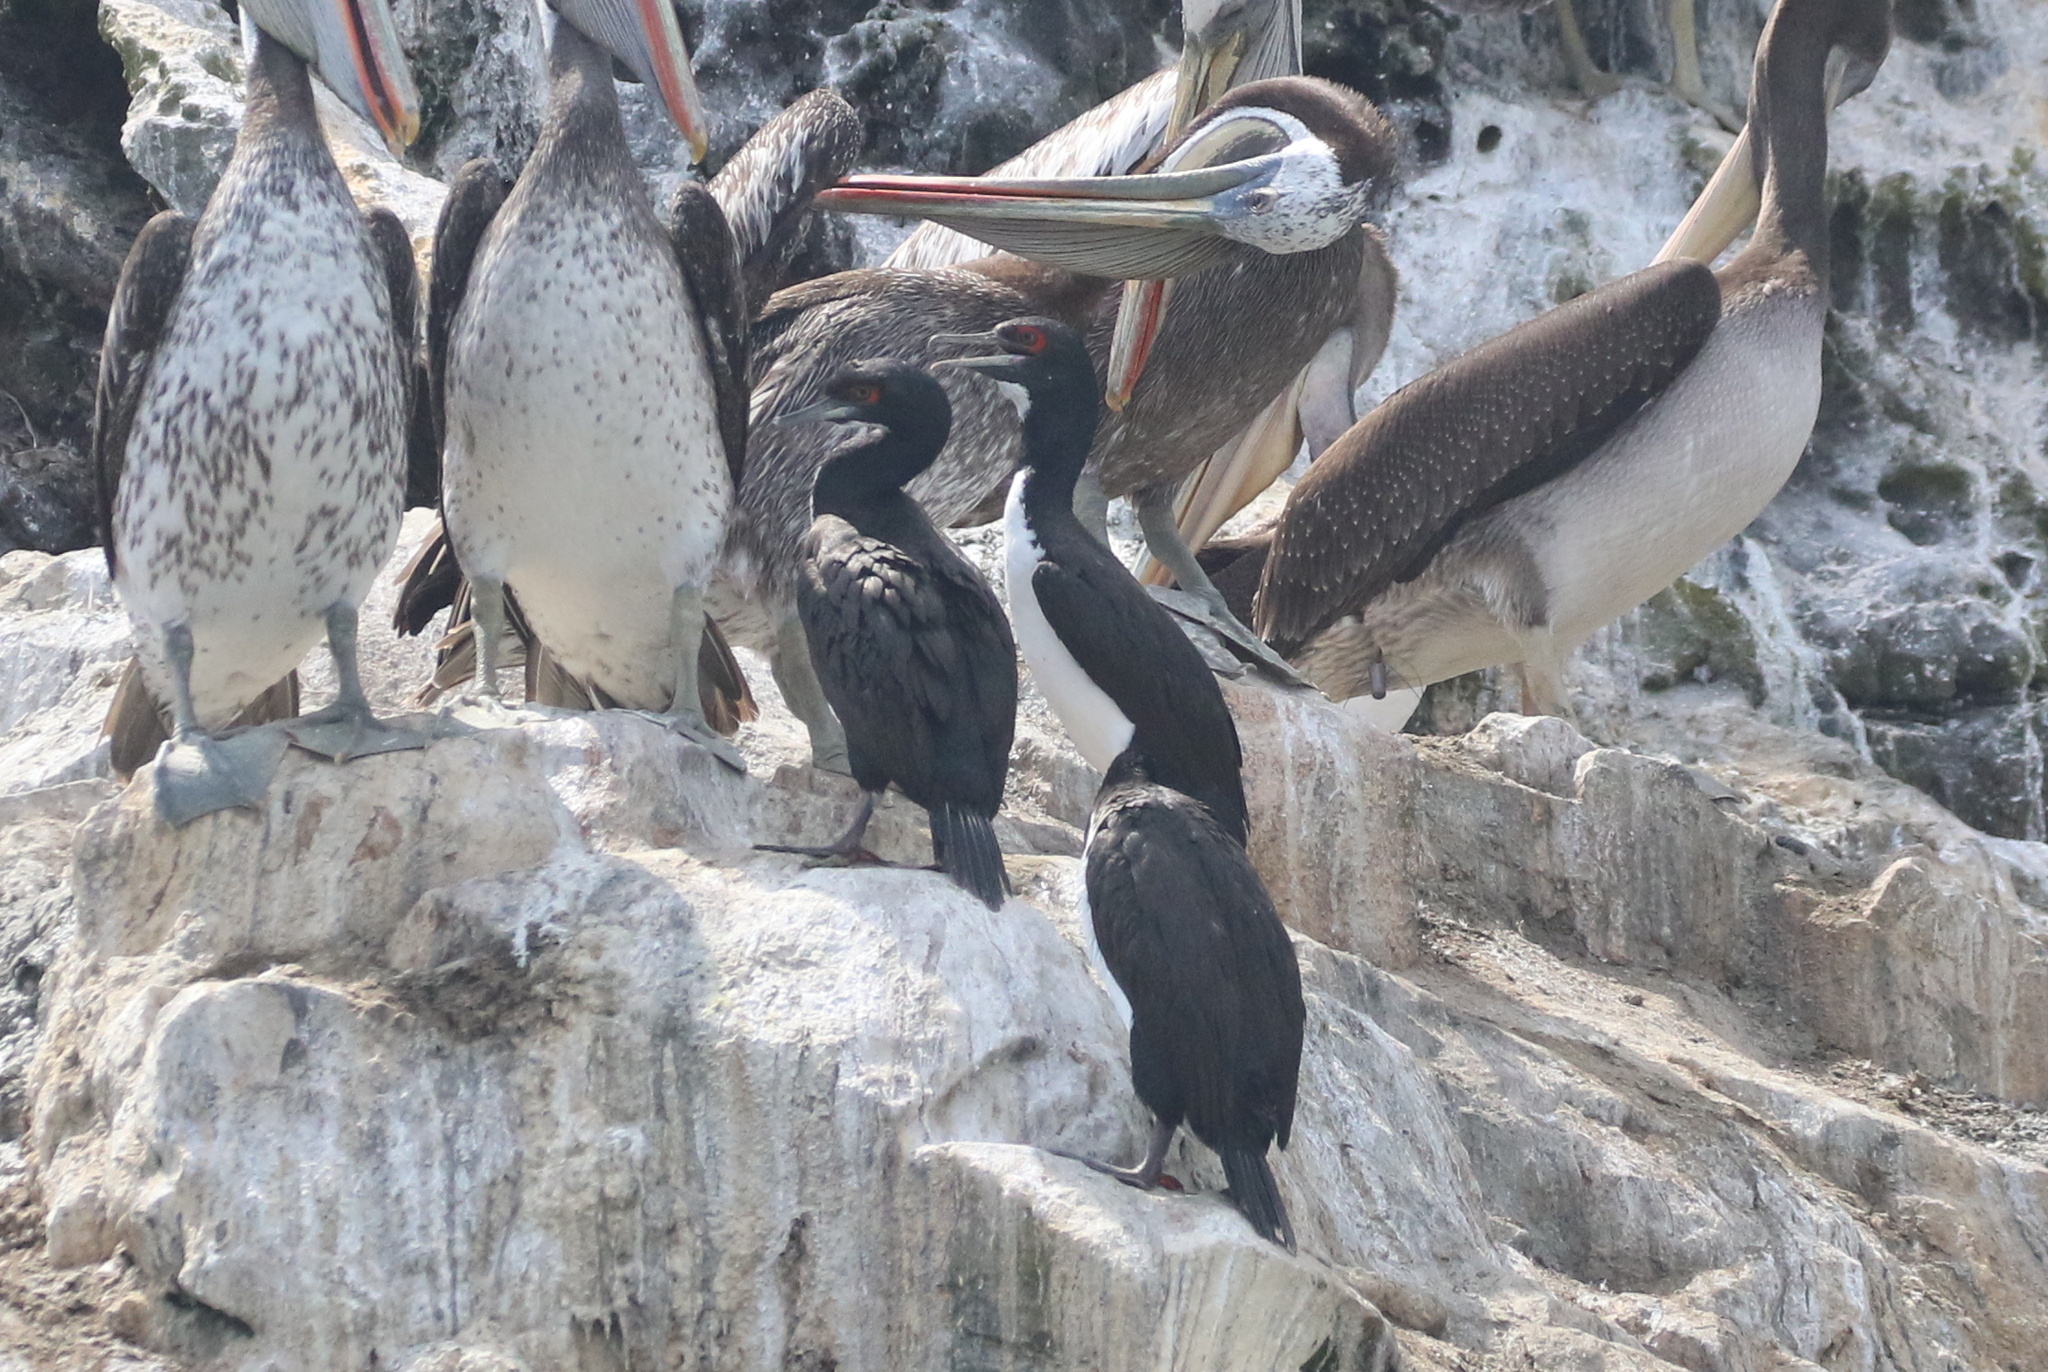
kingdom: Animalia
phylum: Chordata
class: Aves
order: Suliformes
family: Phalacrocoracidae
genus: Leucocarbo
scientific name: Leucocarbo bougainvillii
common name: Guanay cormorant
